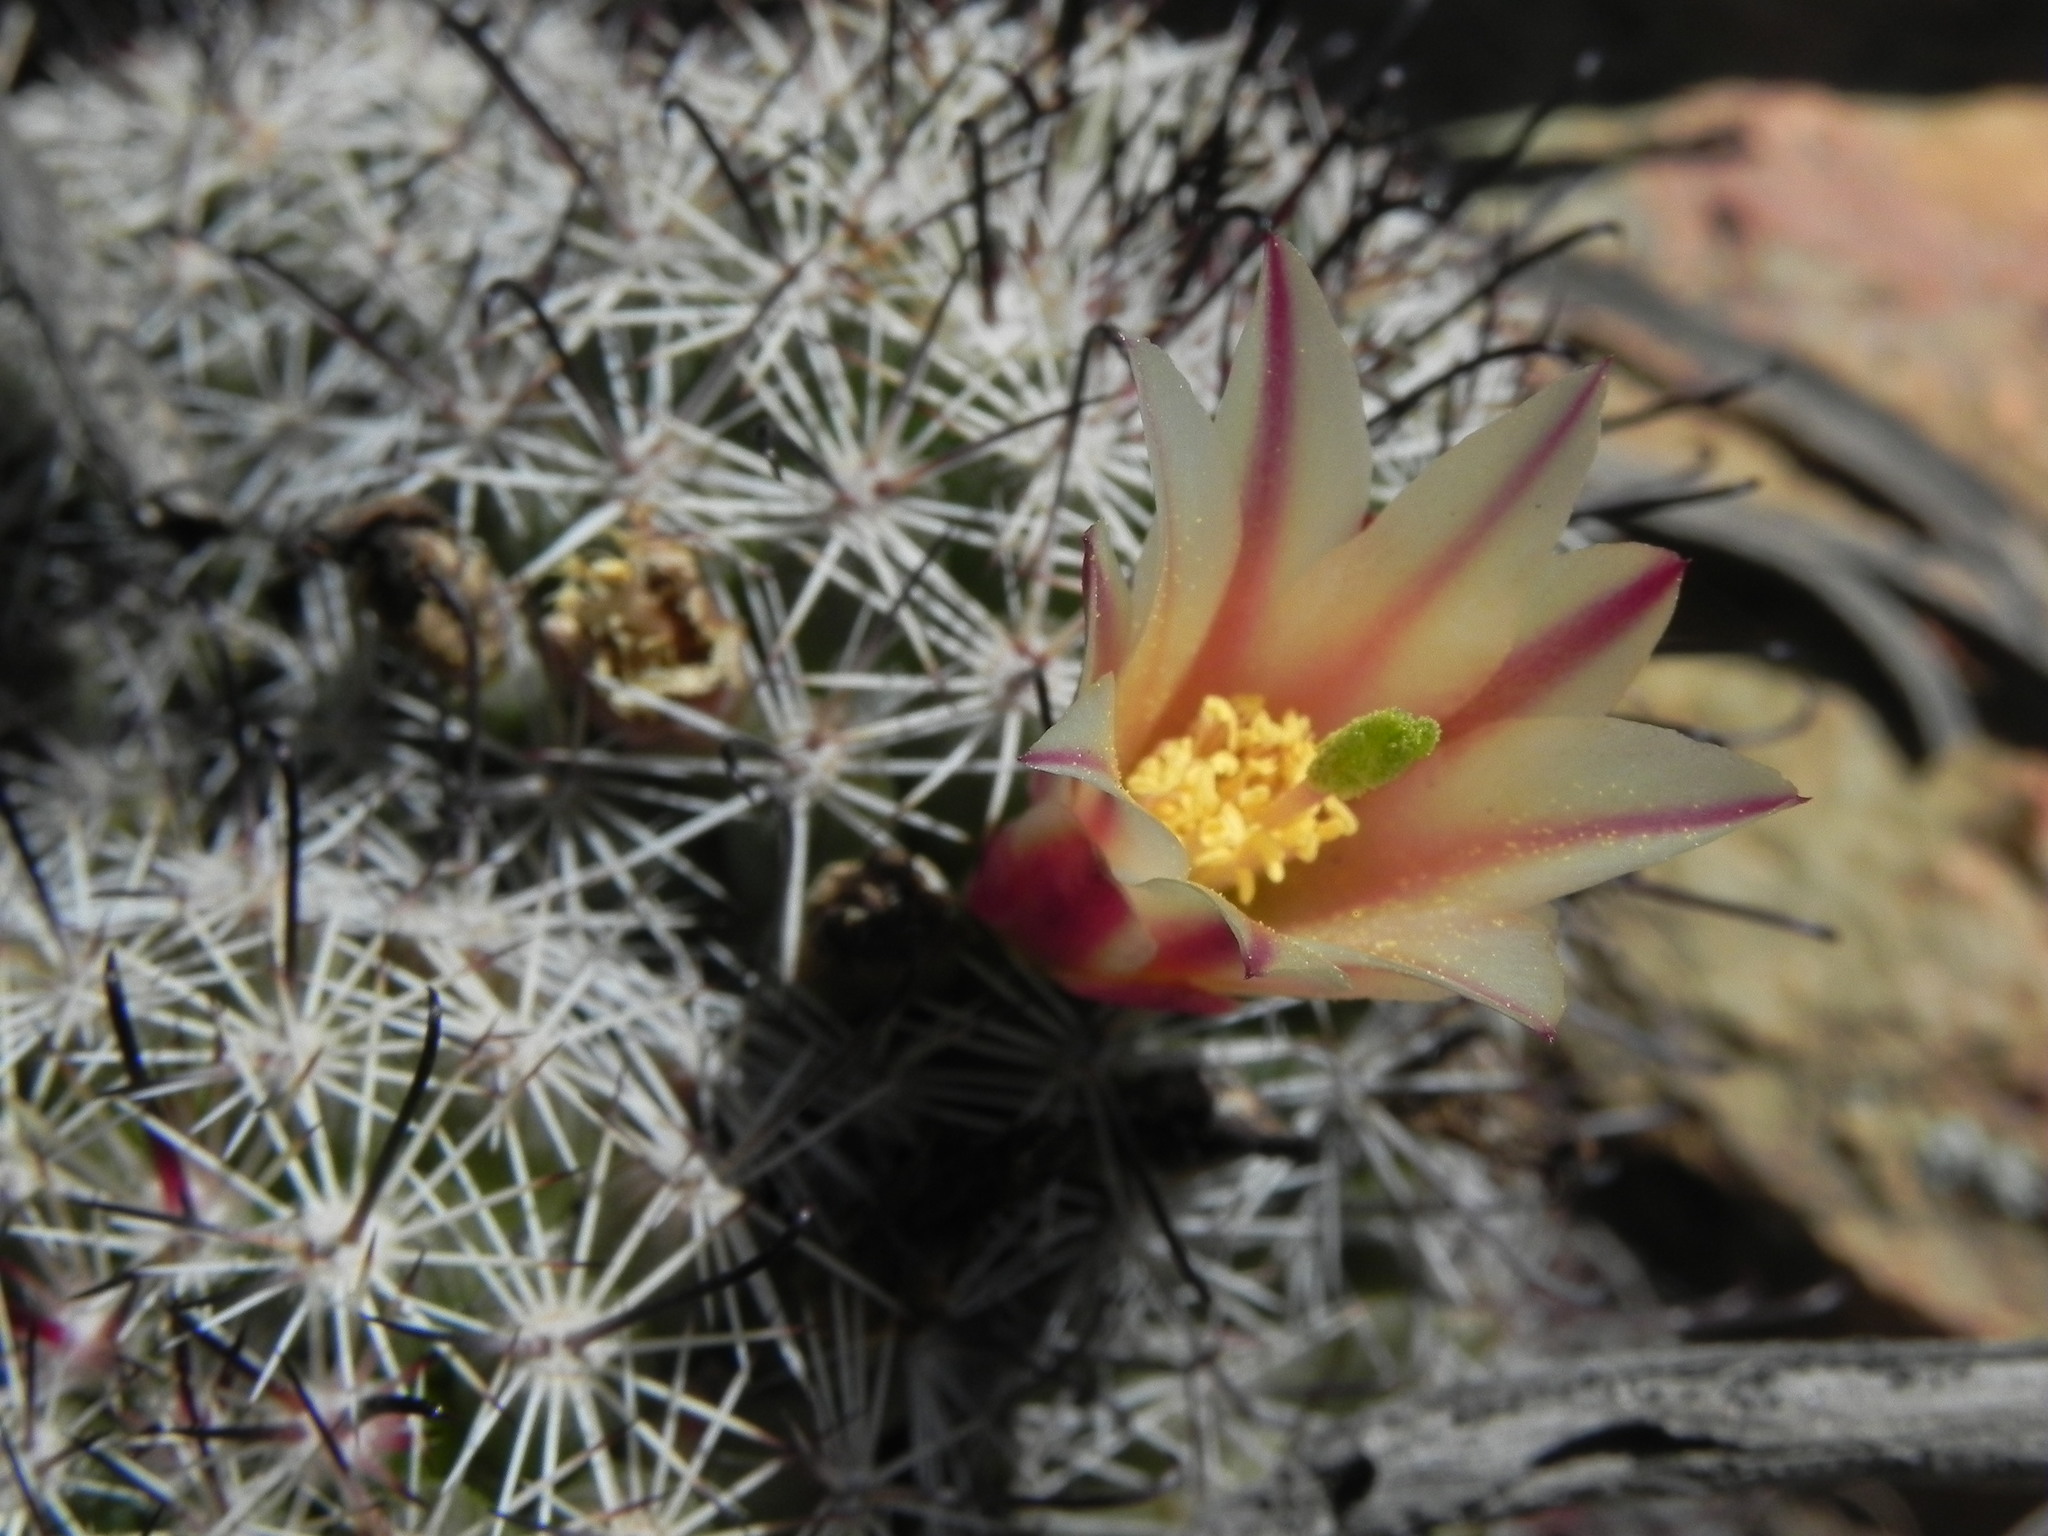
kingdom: Plantae
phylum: Tracheophyta
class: Magnoliopsida
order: Caryophyllales
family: Cactaceae
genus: Cochemiea
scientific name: Cochemiea dioica
